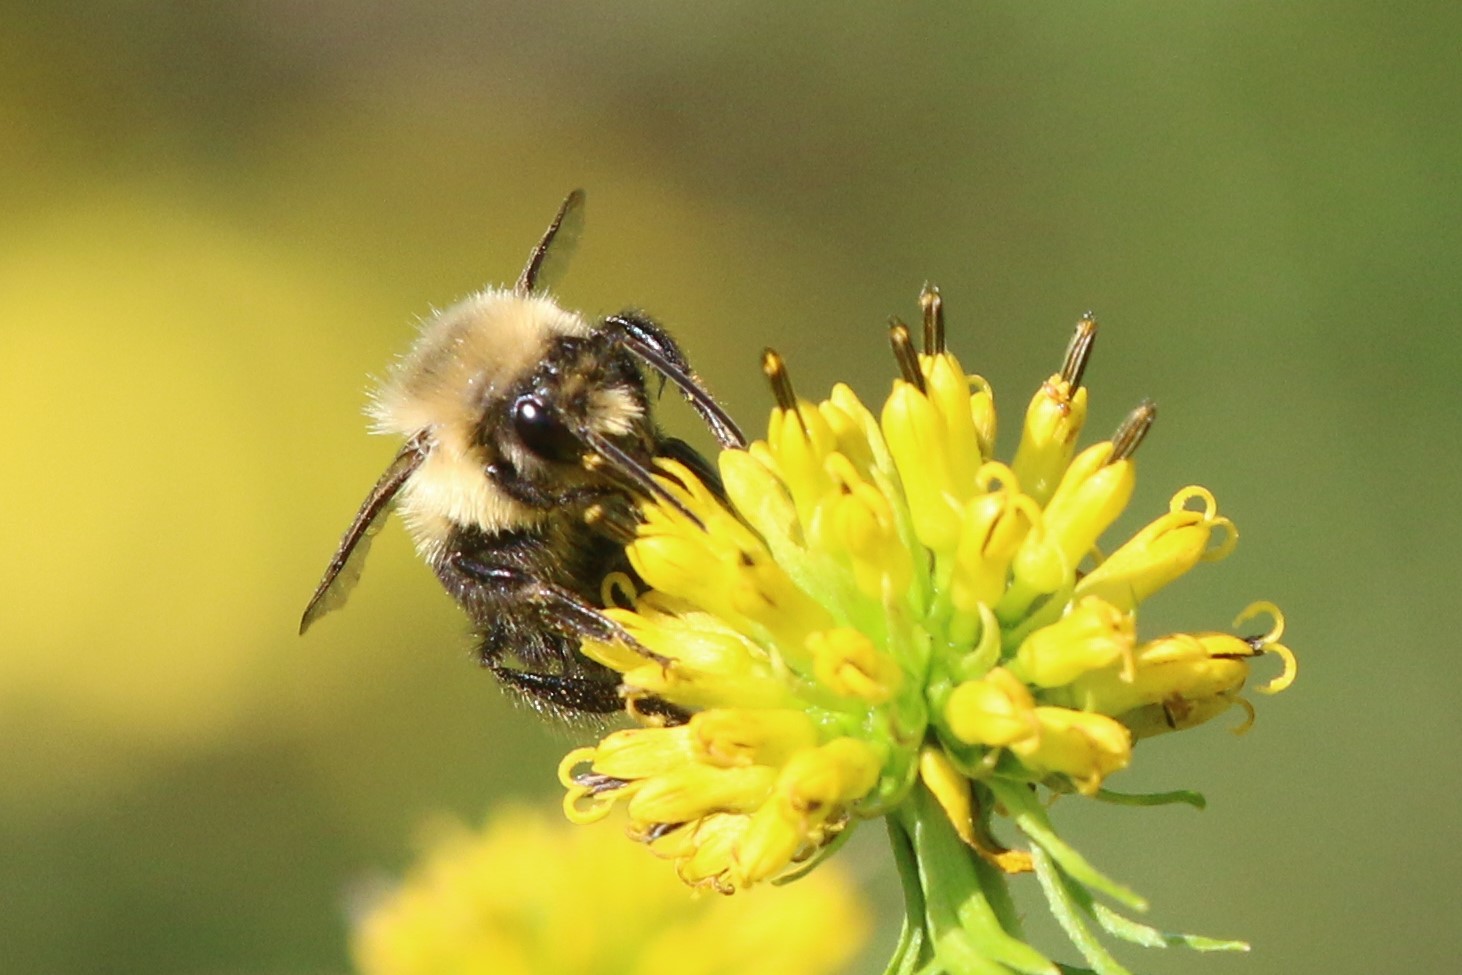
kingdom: Animalia
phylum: Arthropoda
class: Insecta
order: Hymenoptera
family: Apidae
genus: Bombus
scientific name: Bombus impatiens
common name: Common eastern bumble bee
